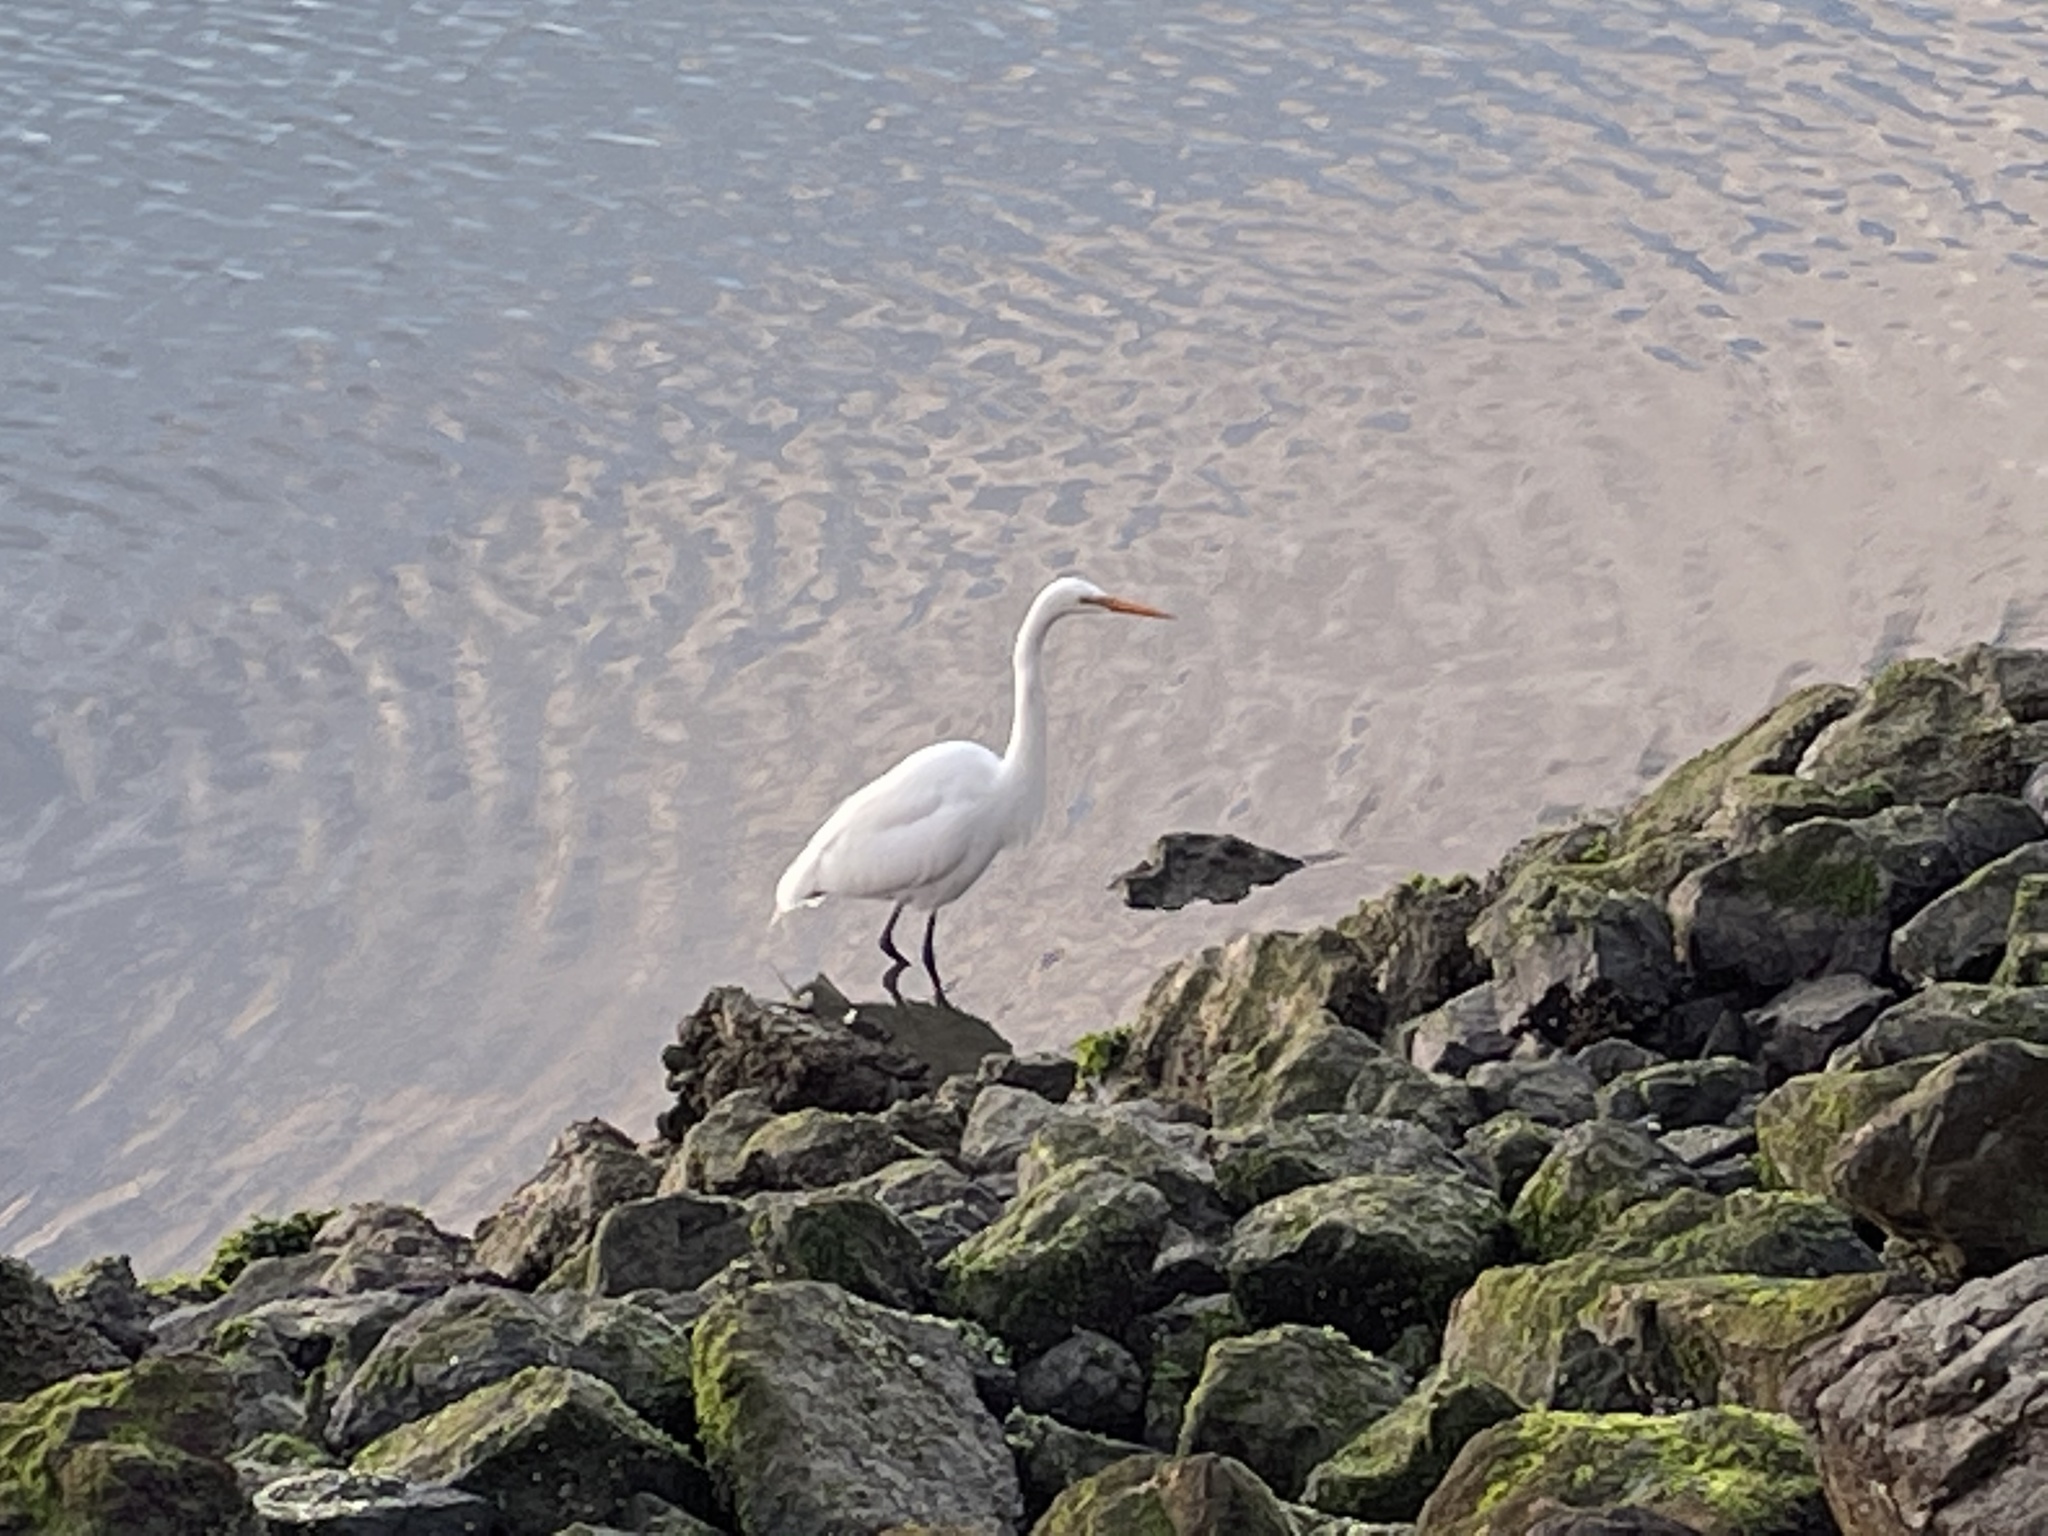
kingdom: Animalia
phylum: Chordata
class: Aves
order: Pelecaniformes
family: Ardeidae
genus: Ardea
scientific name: Ardea alba
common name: Great egret
